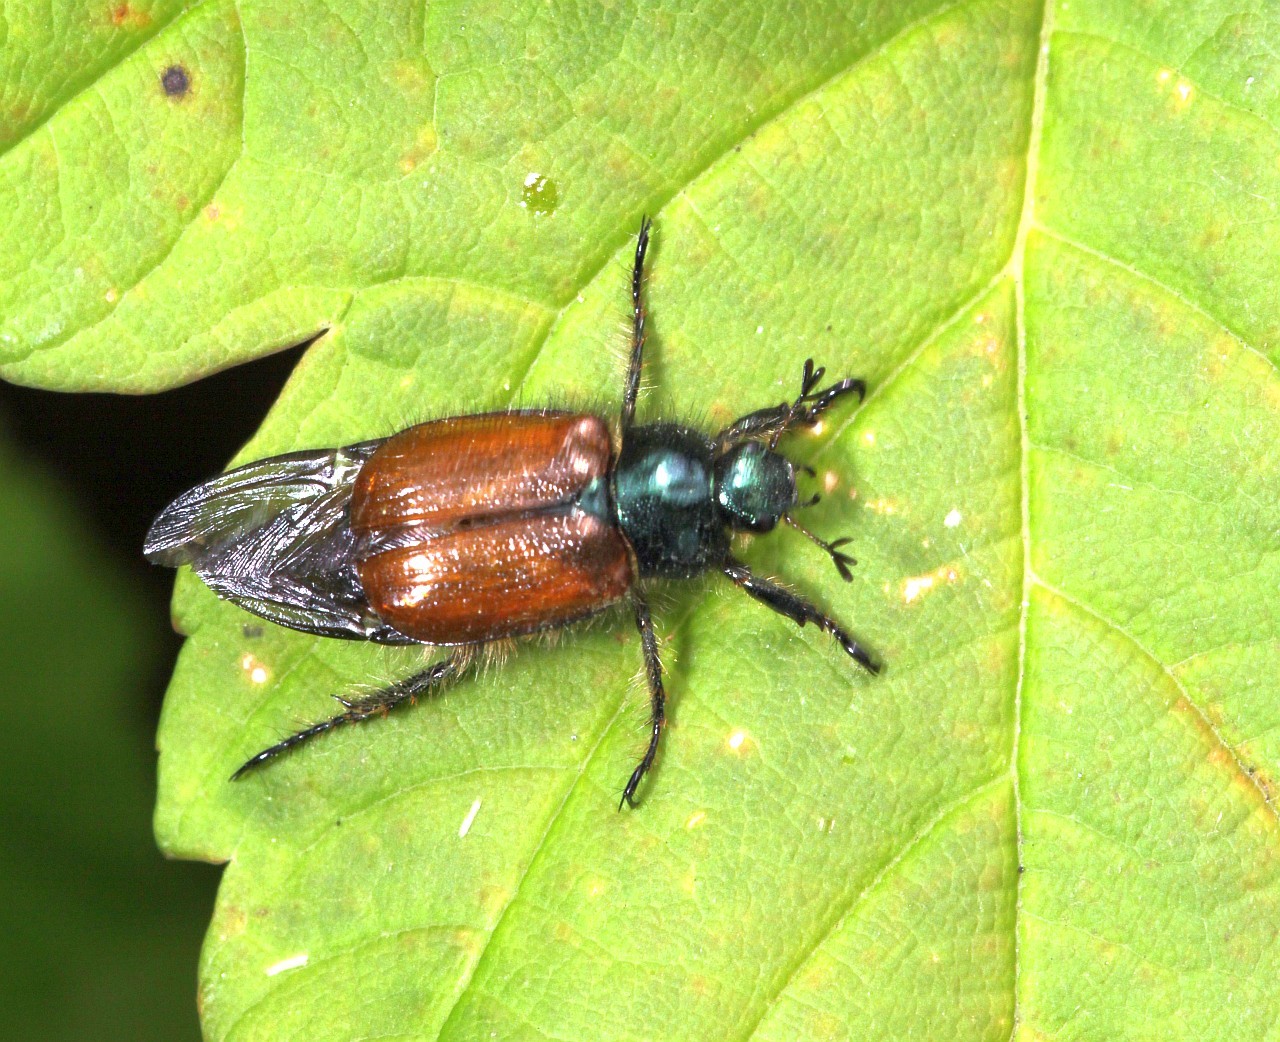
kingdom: Animalia
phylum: Arthropoda
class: Insecta
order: Coleoptera
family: Scarabaeidae
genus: Phyllopertha
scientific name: Phyllopertha horticola
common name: Garden chafer
